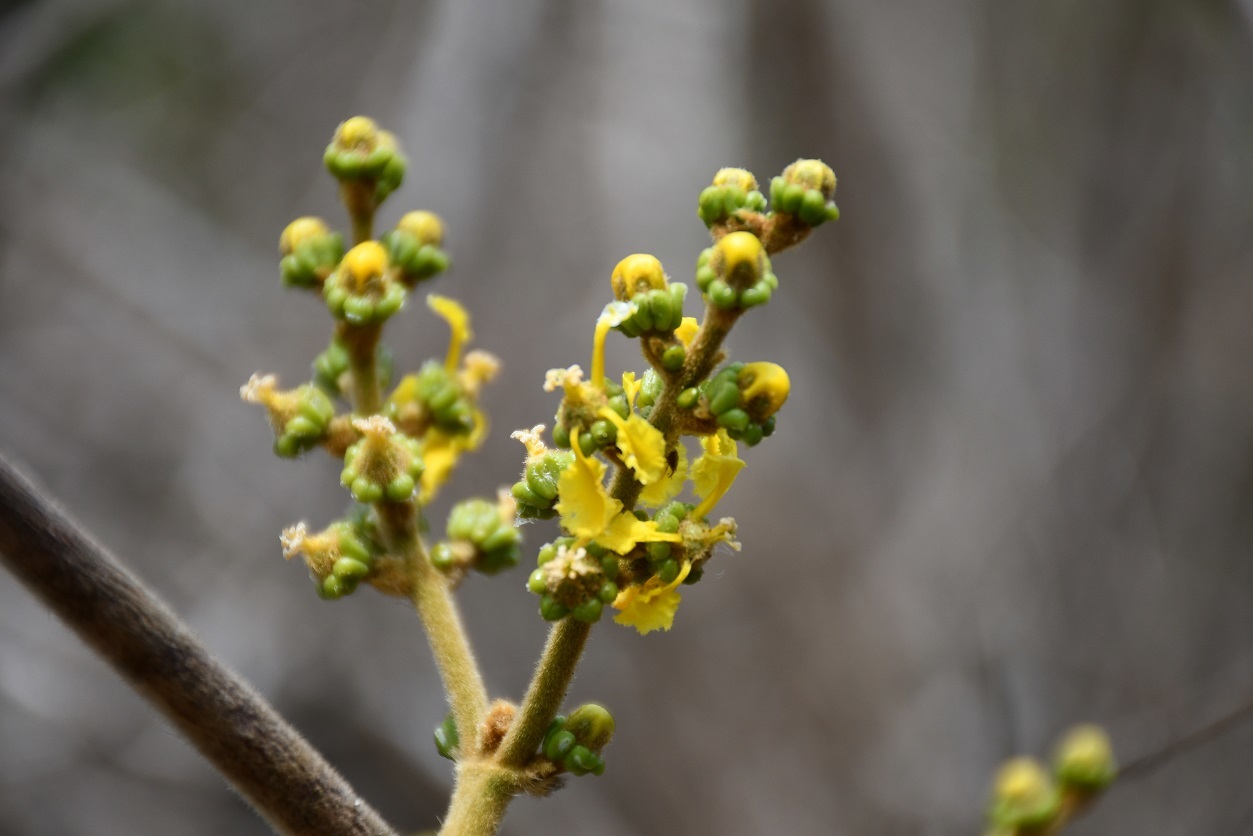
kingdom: Plantae
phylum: Tracheophyta
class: Magnoliopsida
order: Malpighiales
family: Malpighiaceae
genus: Bunchosia
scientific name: Bunchosia montana
